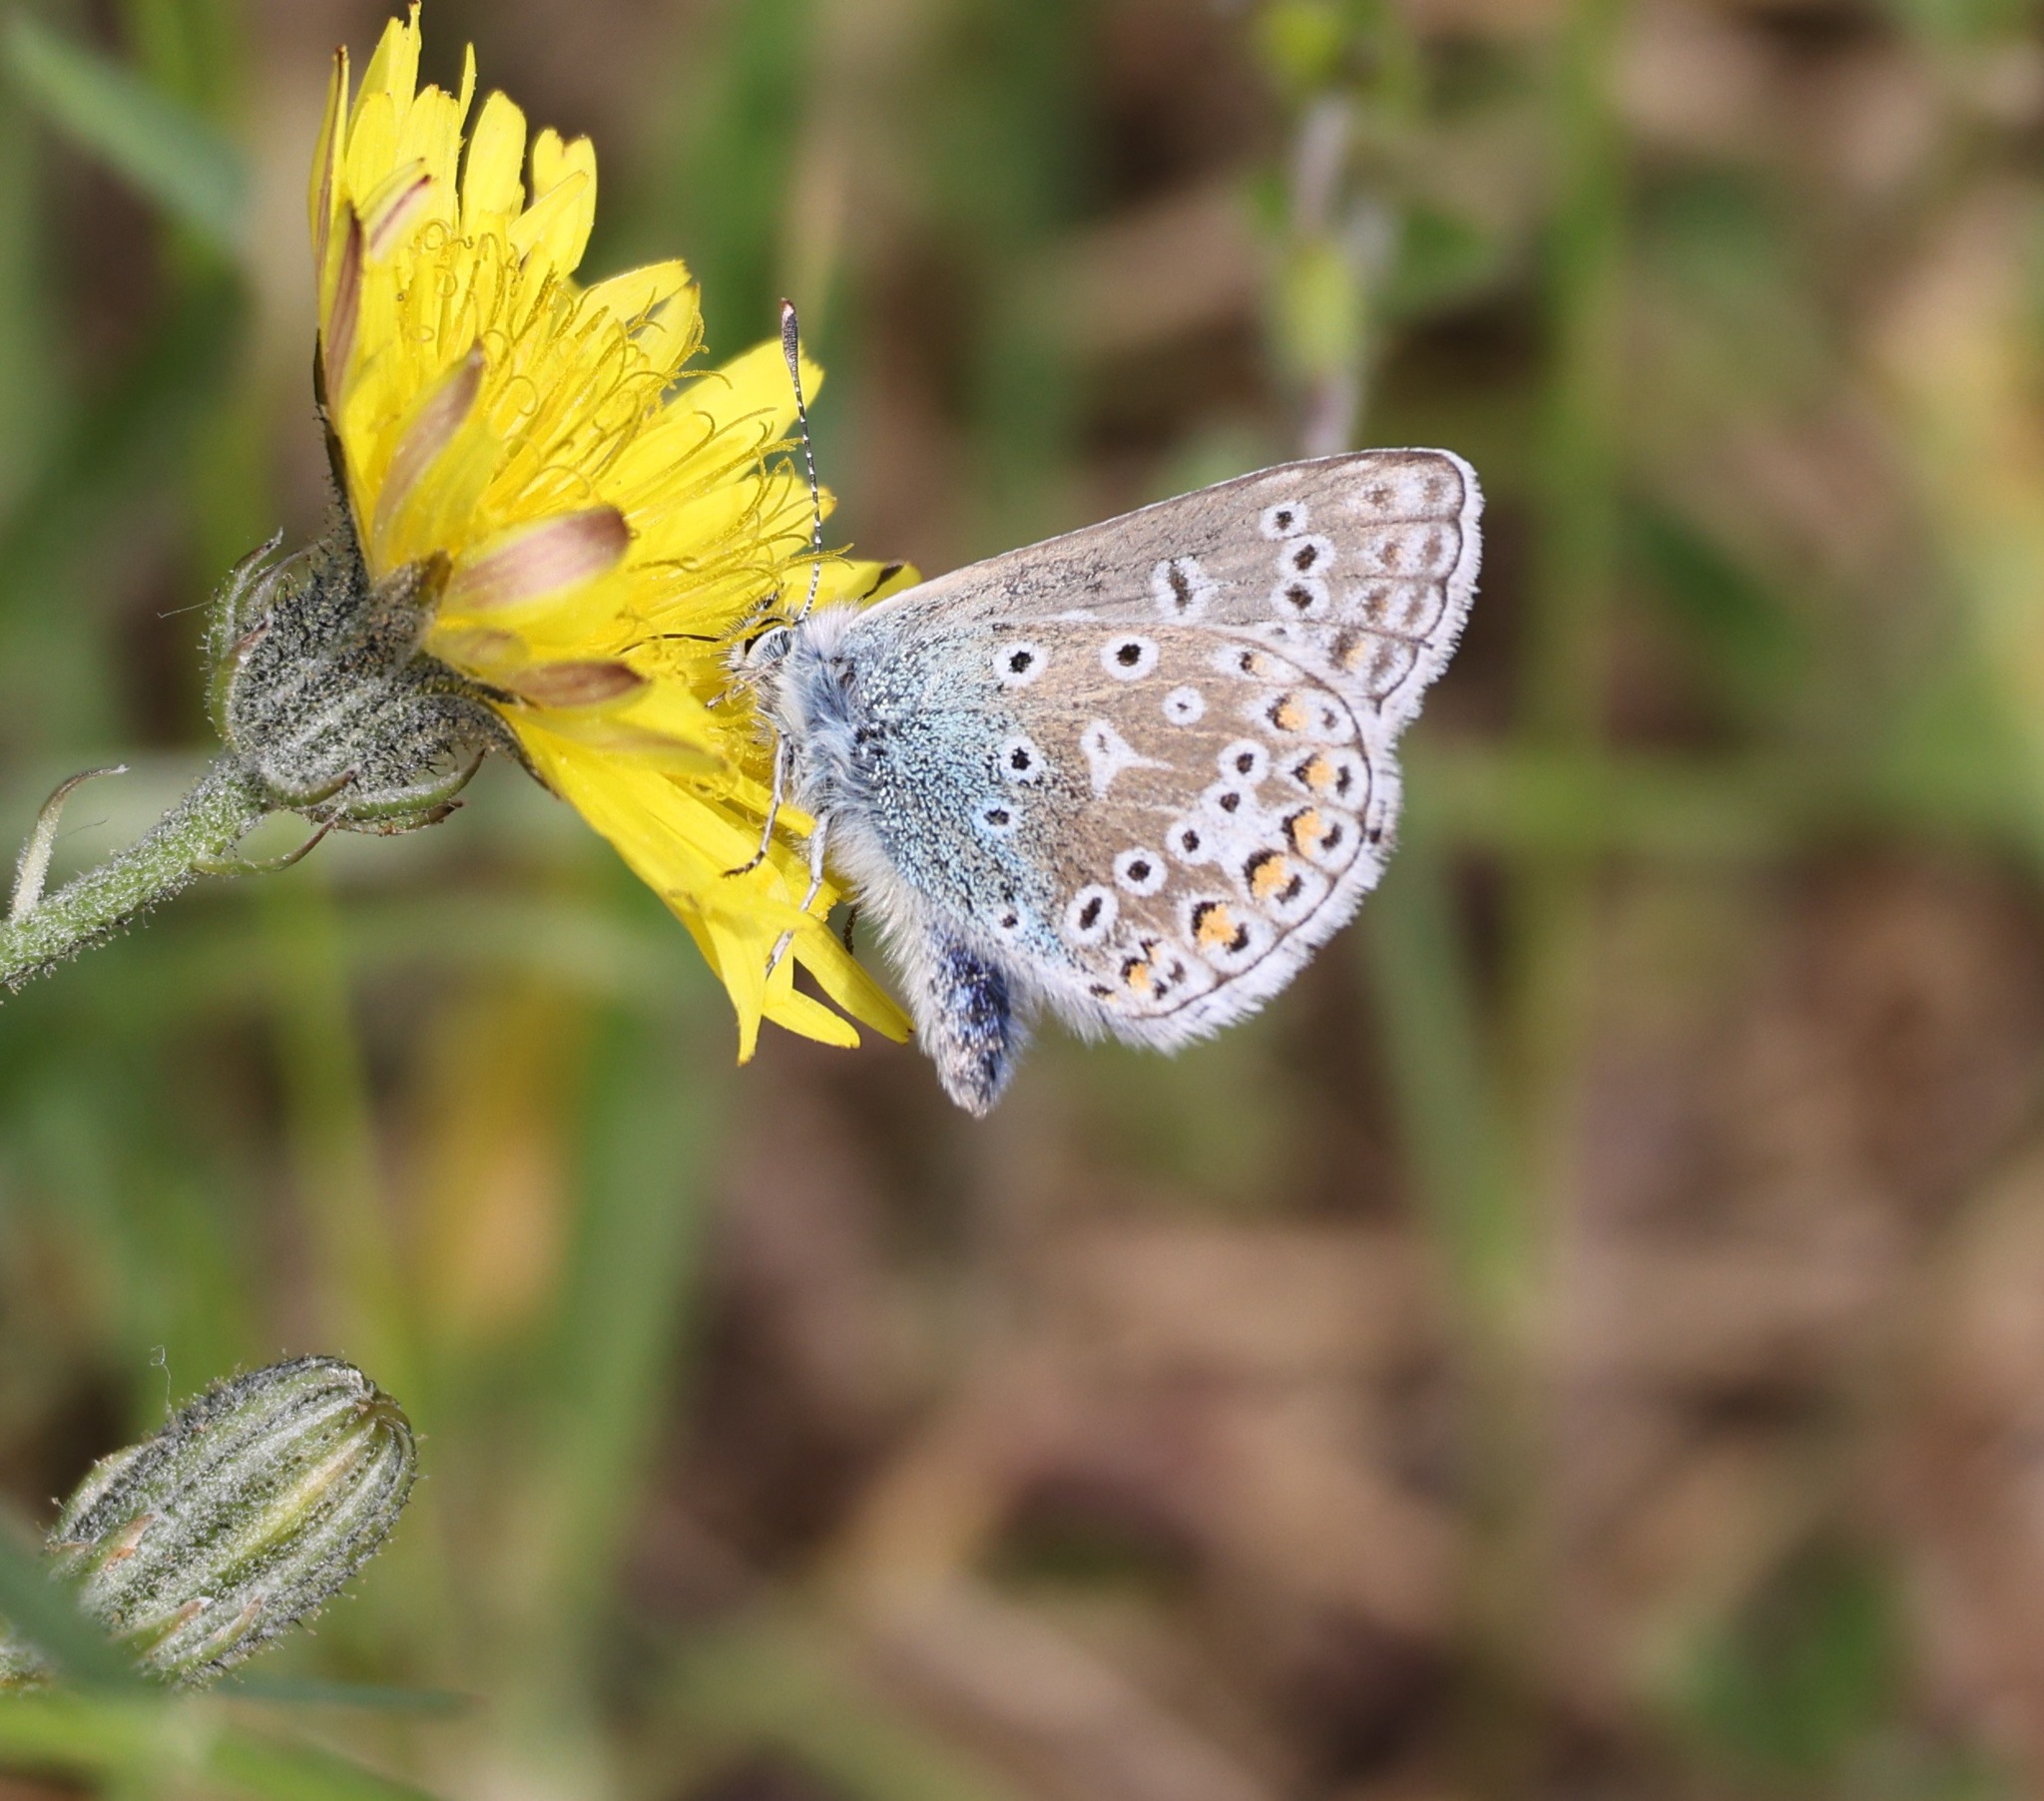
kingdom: Animalia
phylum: Arthropoda
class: Insecta
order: Lepidoptera
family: Lycaenidae
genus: Polyommatus
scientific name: Polyommatus icarus
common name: Common blue
